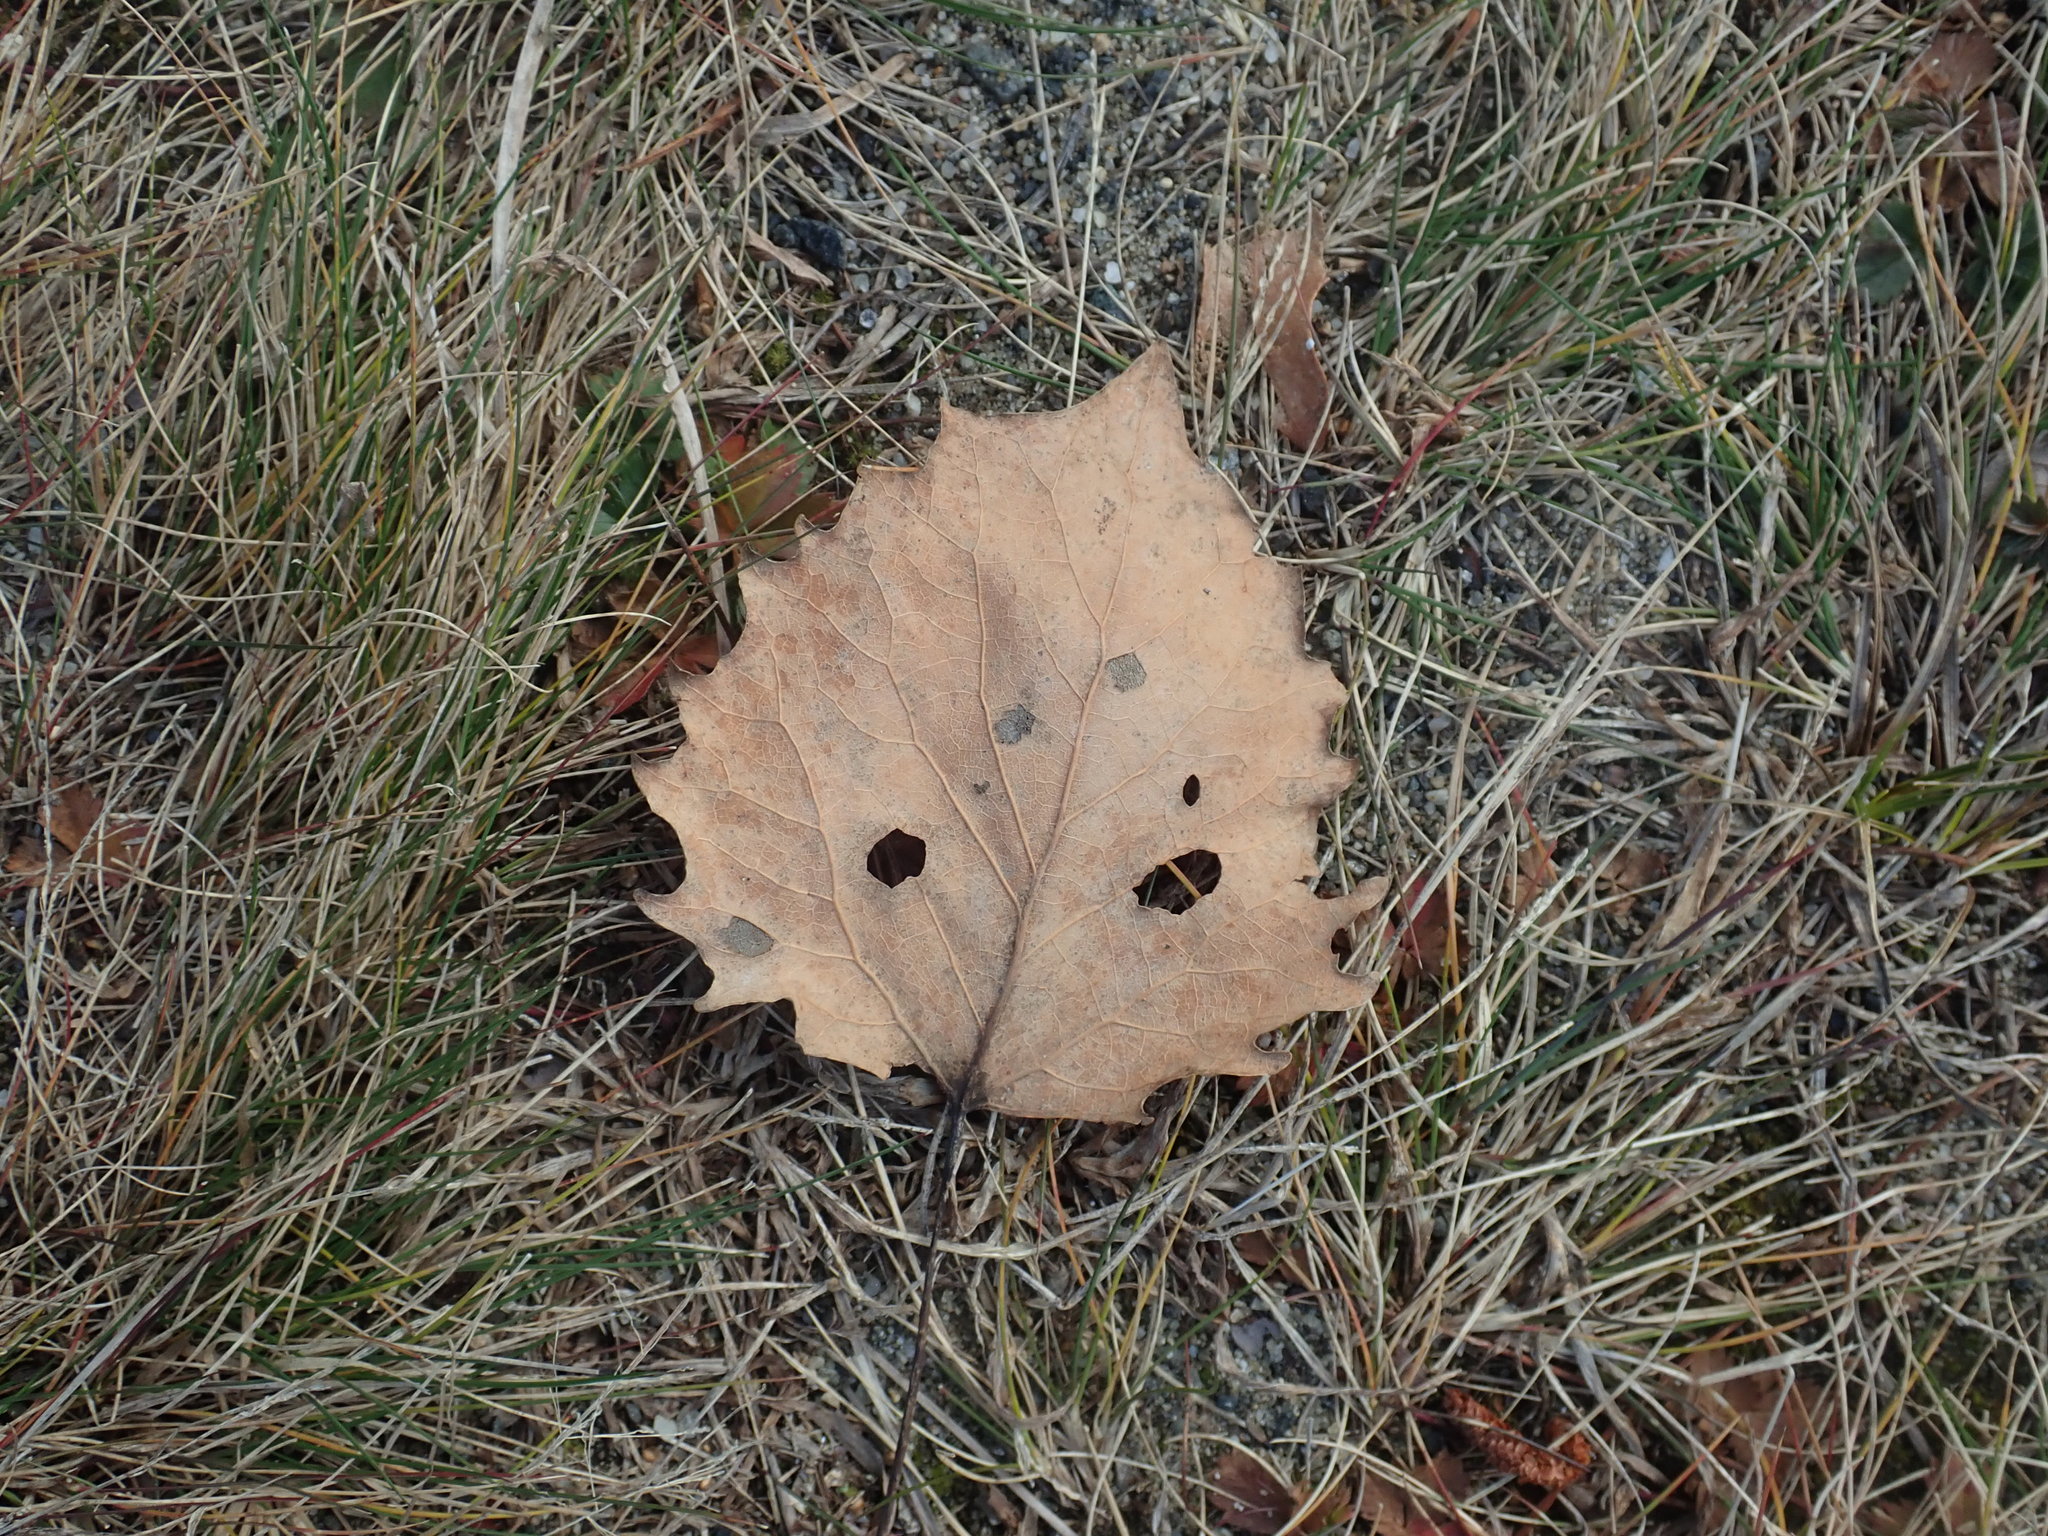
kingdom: Plantae
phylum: Tracheophyta
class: Magnoliopsida
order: Malpighiales
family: Salicaceae
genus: Populus
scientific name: Populus grandidentata
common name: Bigtooth aspen
